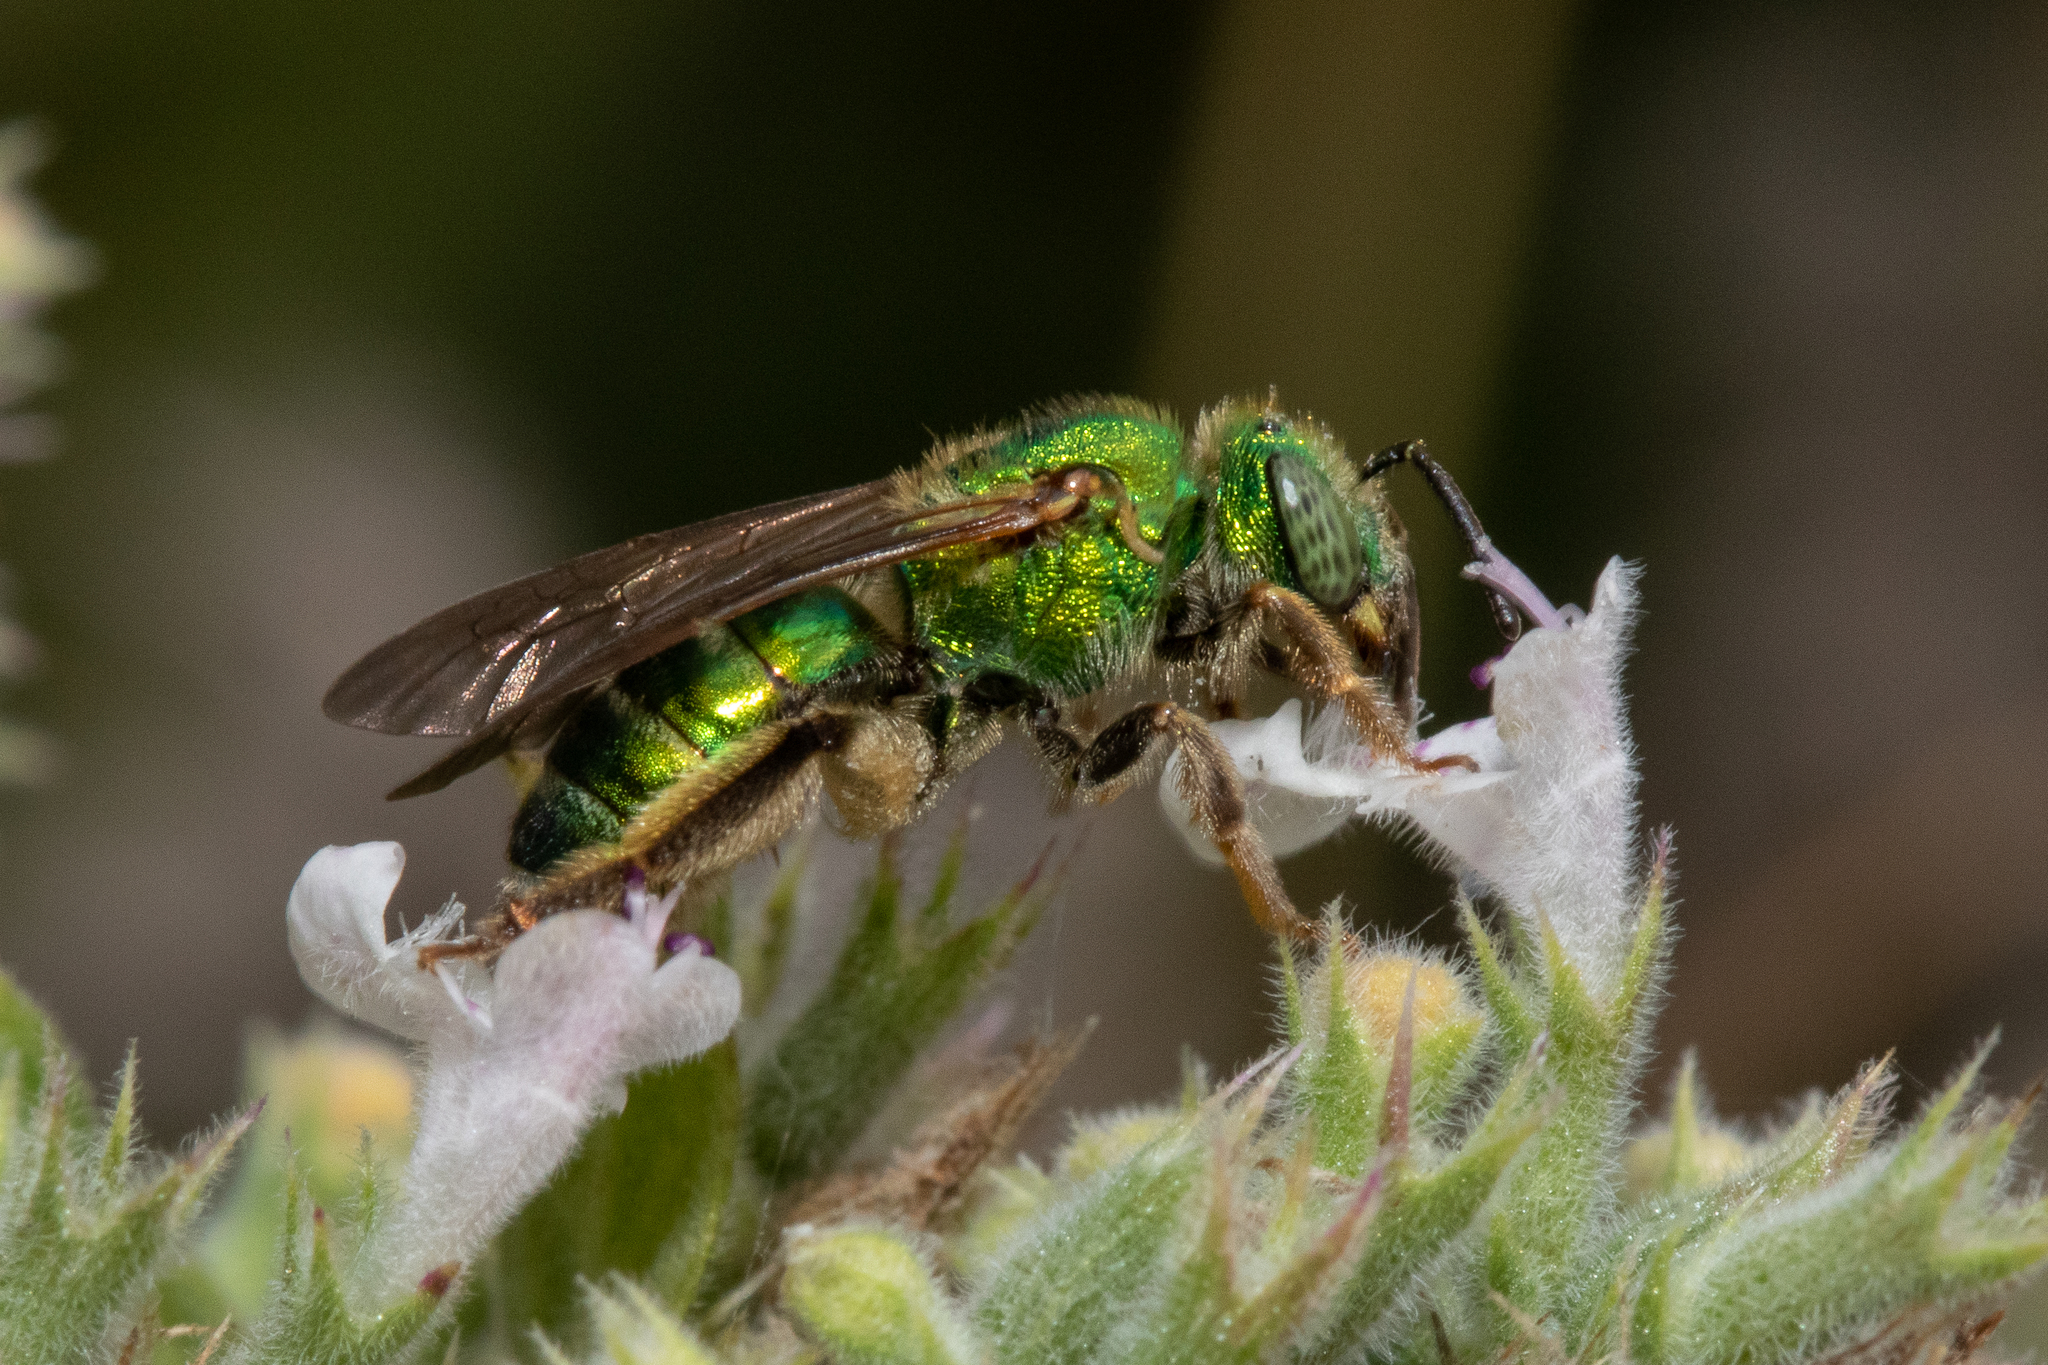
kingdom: Animalia
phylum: Arthropoda
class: Insecta
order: Hymenoptera
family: Halictidae
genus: Agapostemon
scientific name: Agapostemon sericeus
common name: Silky striped sweat bee
